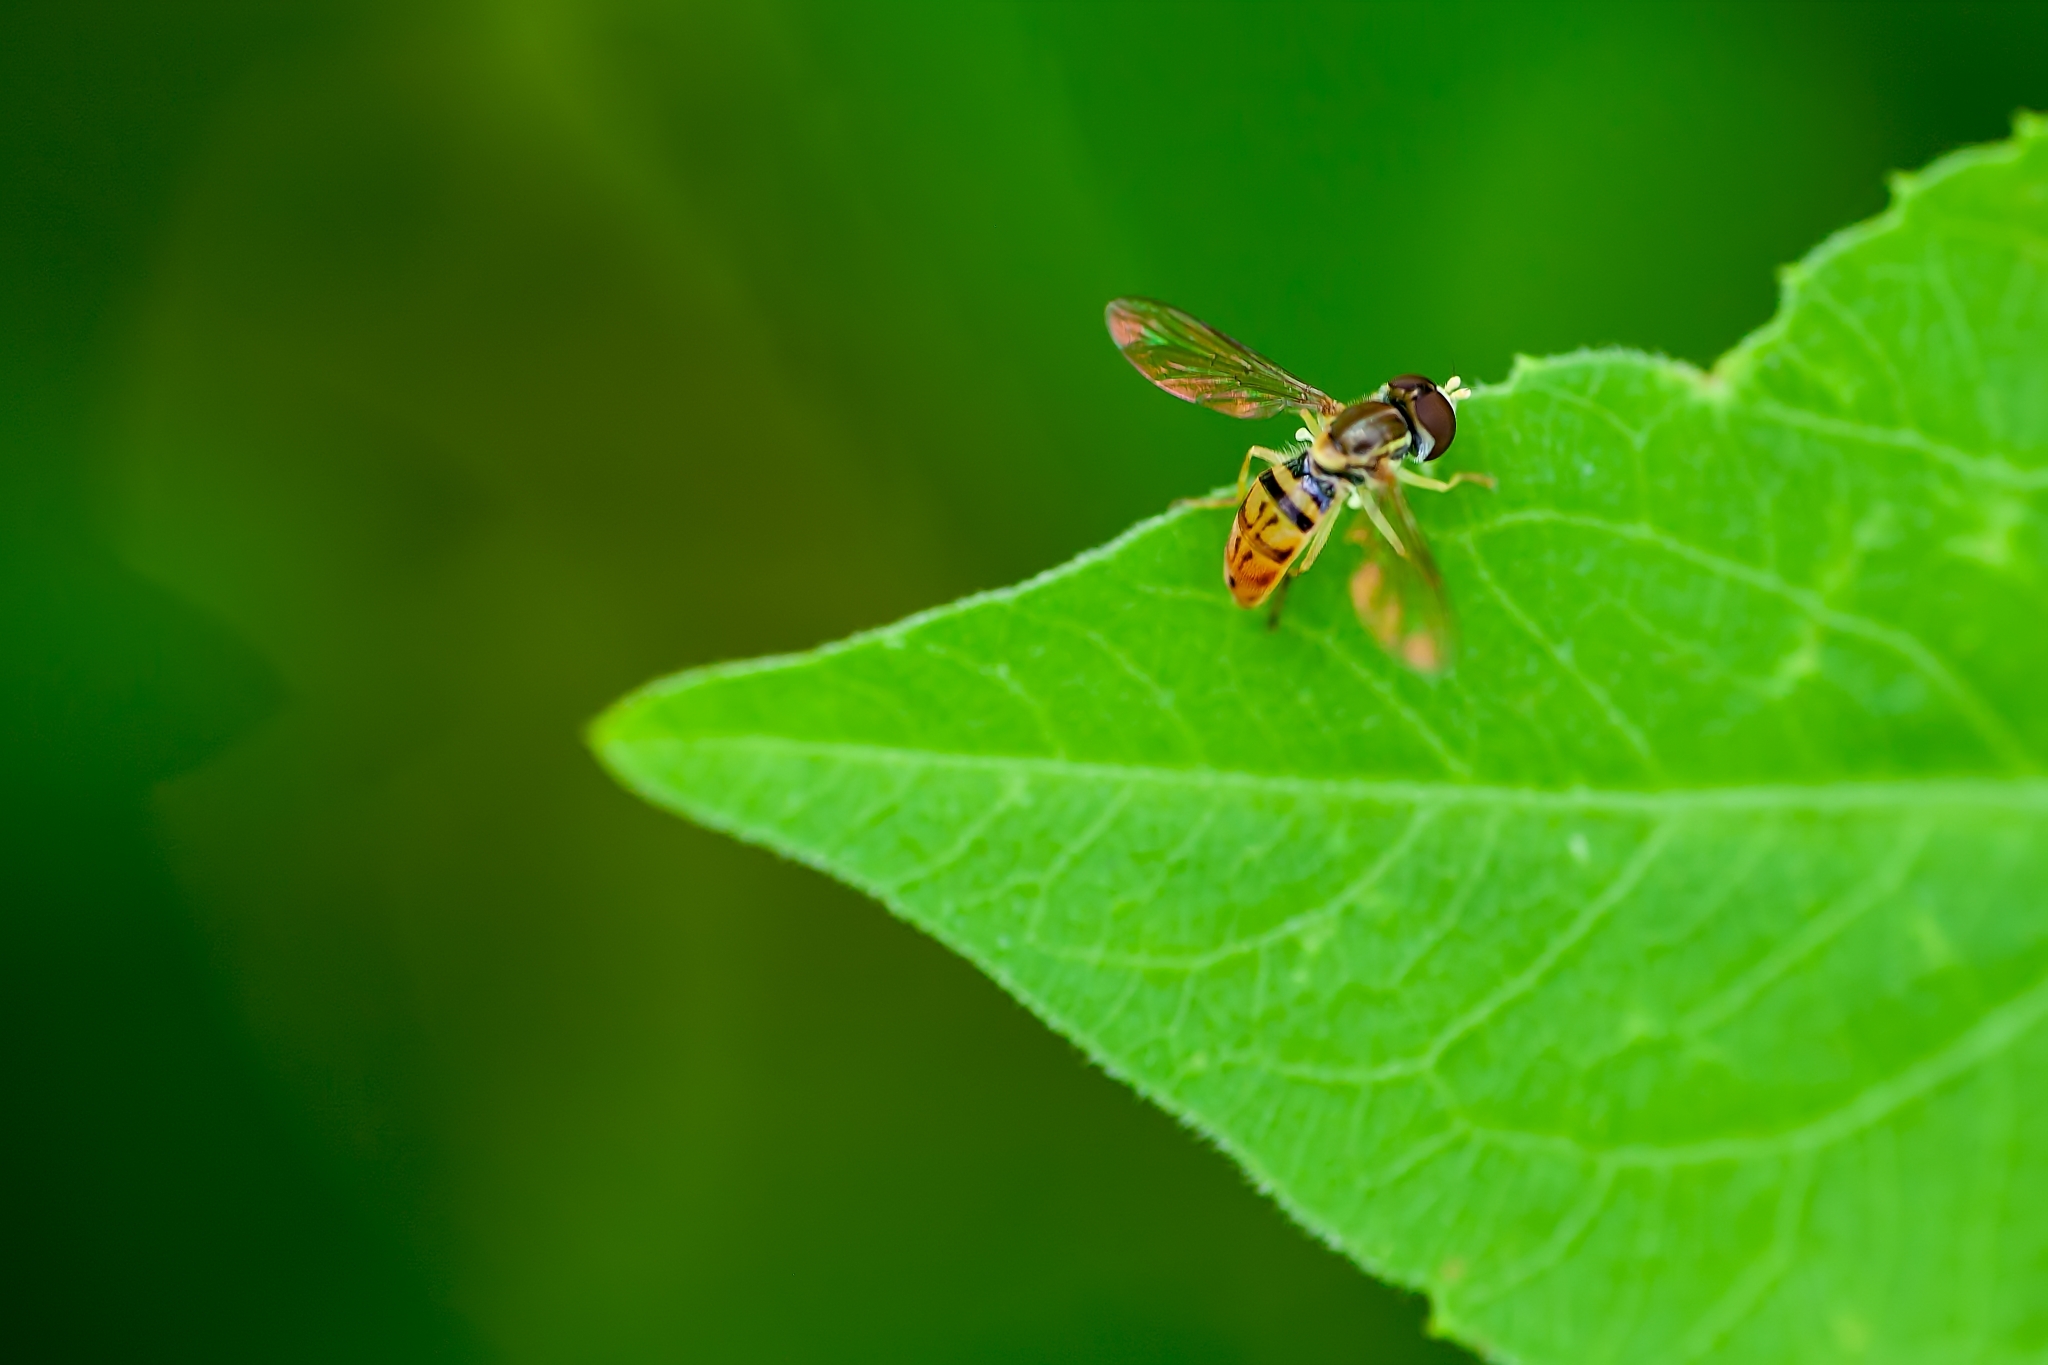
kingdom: Animalia
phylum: Arthropoda
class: Insecta
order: Diptera
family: Syrphidae
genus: Toxomerus
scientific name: Toxomerus marginatus
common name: Syrphid fly
